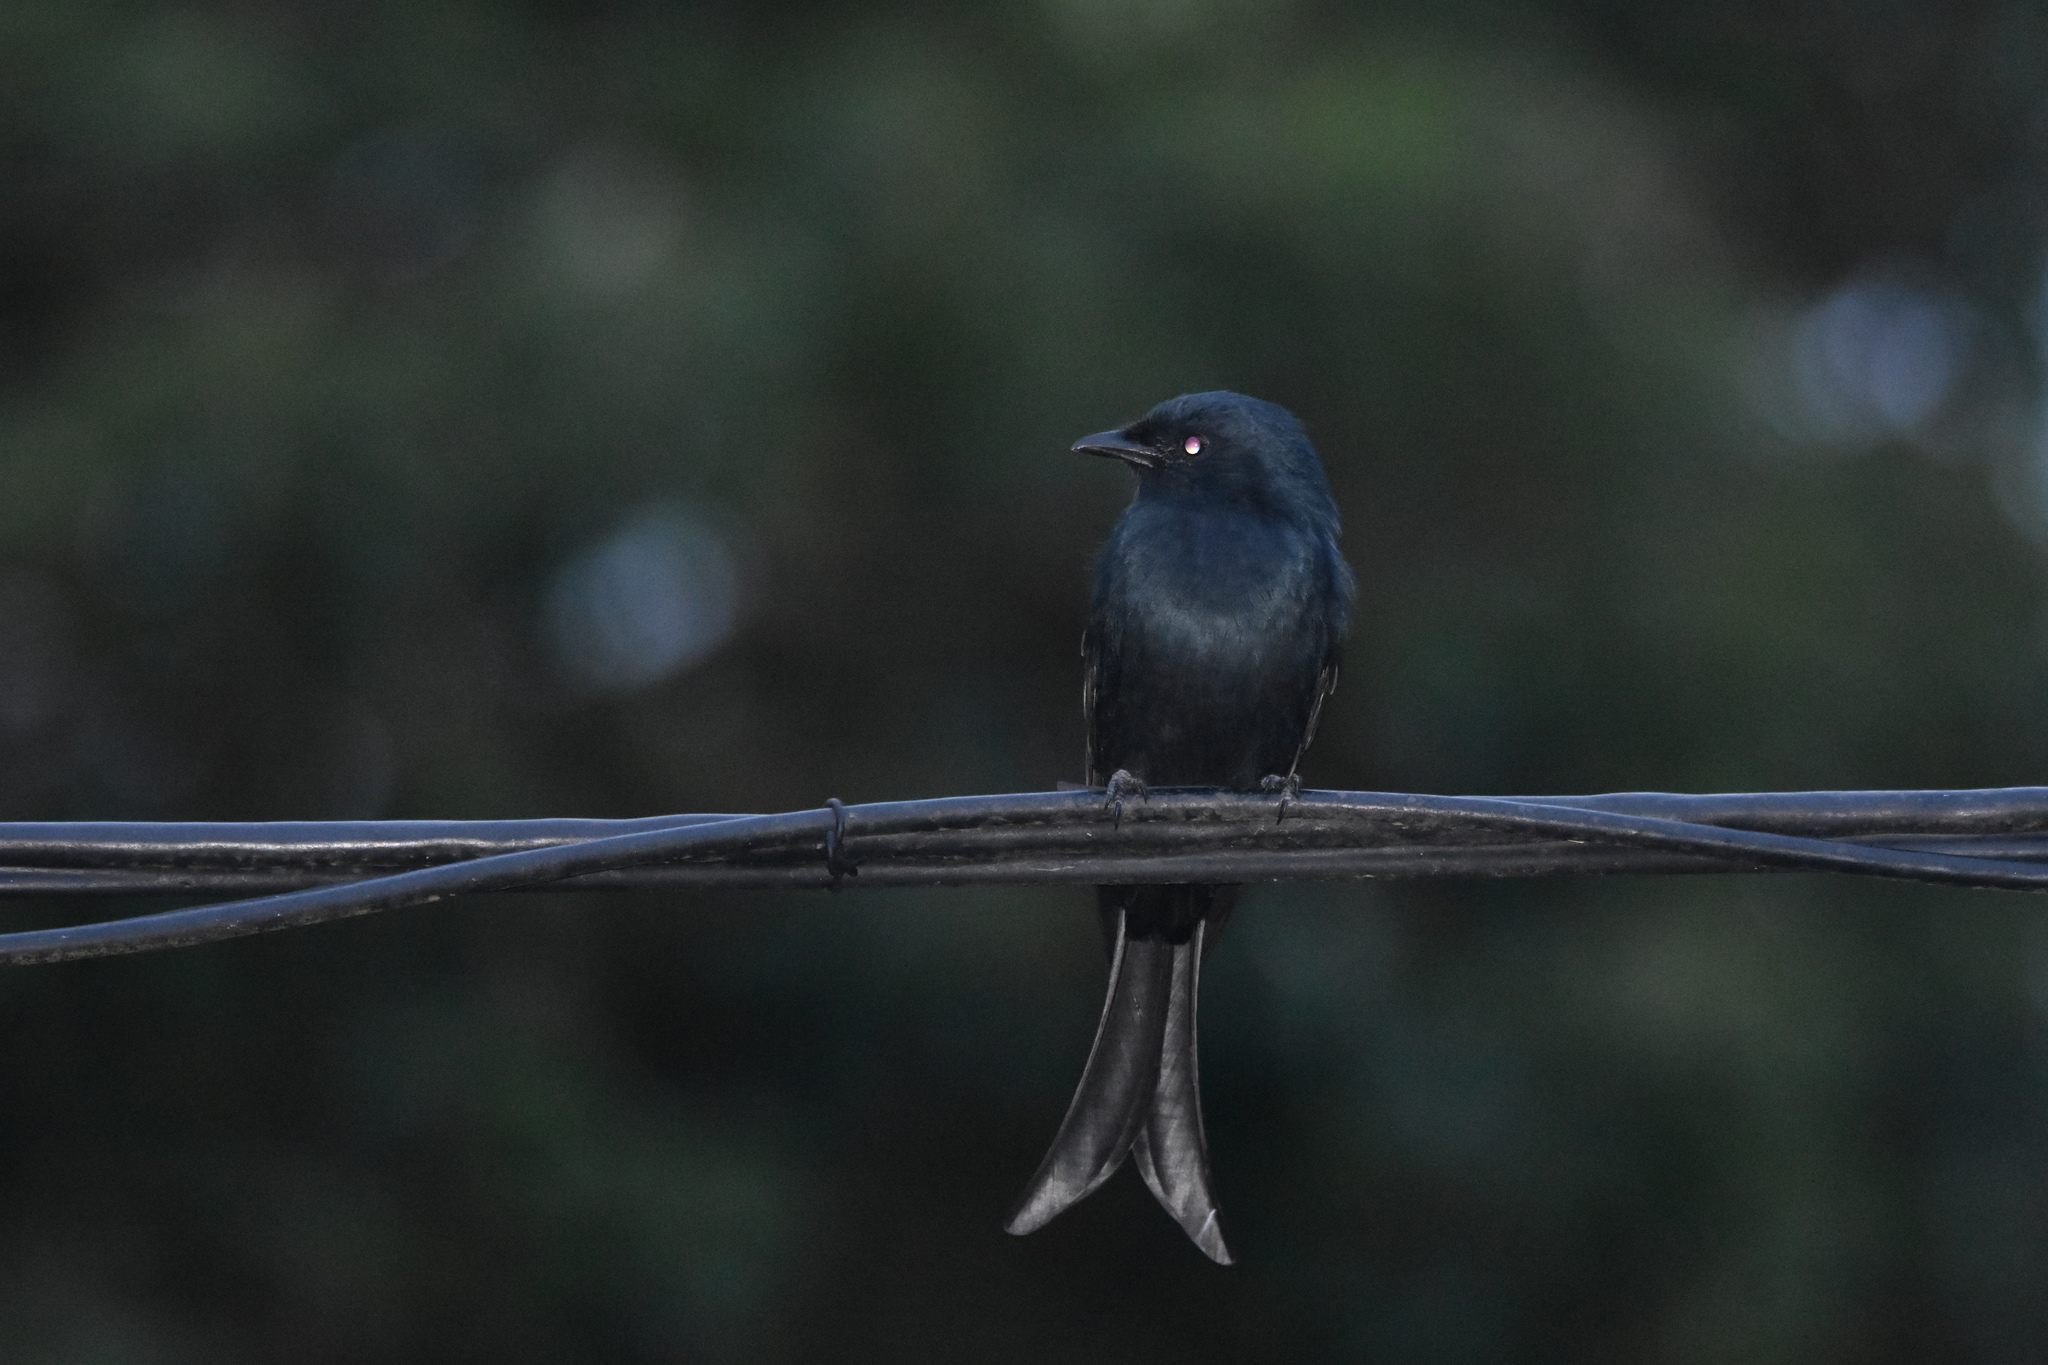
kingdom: Animalia
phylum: Chordata
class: Aves
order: Passeriformes
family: Dicruridae
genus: Dicrurus
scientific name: Dicrurus adsimilis
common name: Fork-tailed drongo
